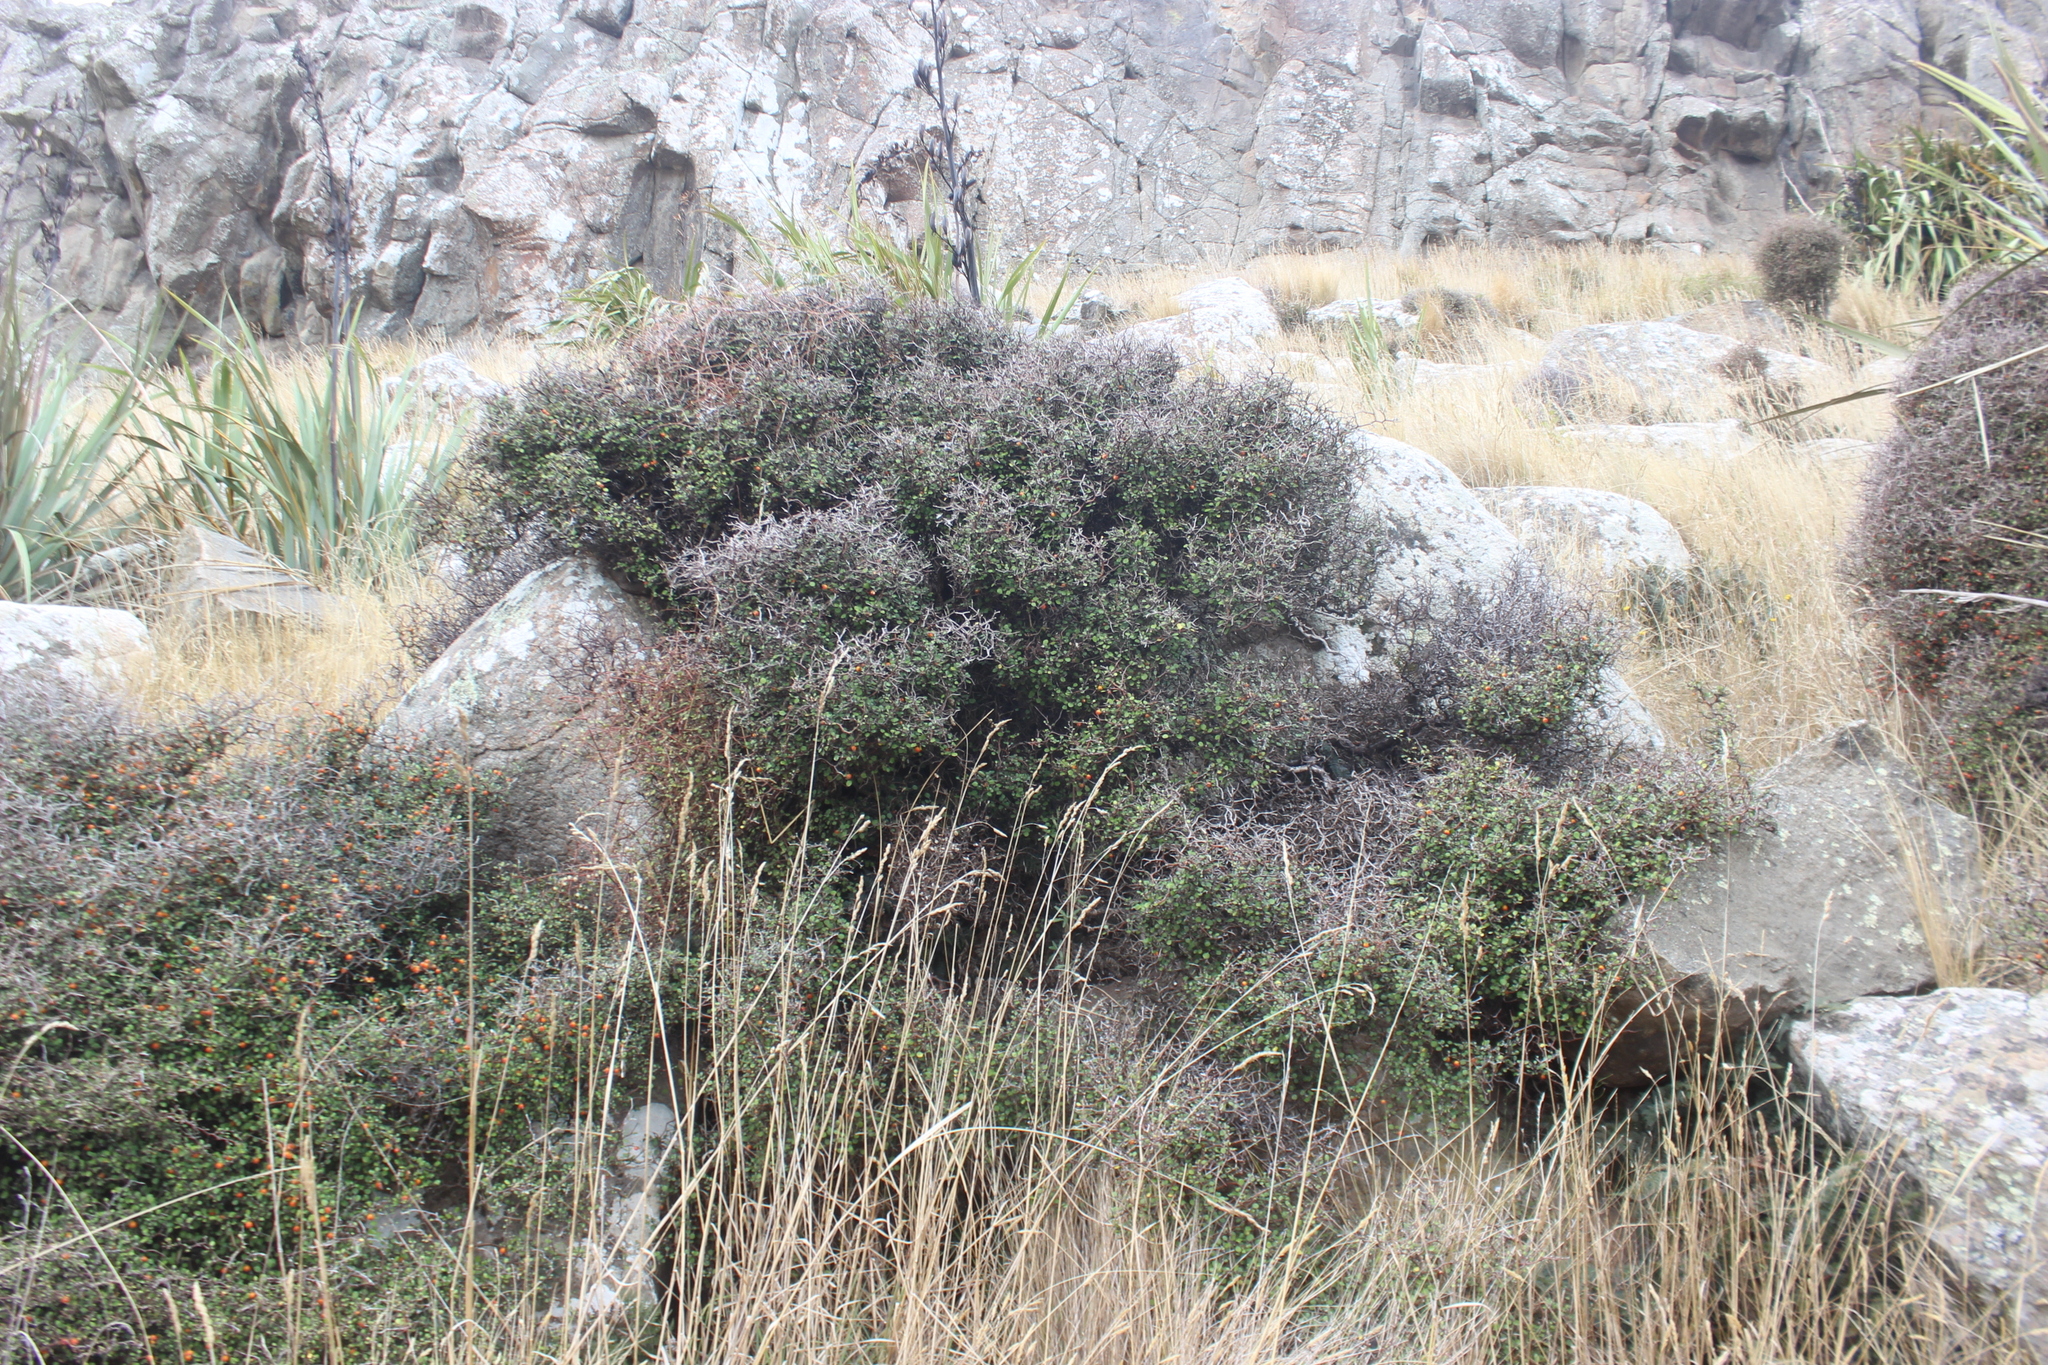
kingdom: Plantae
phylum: Tracheophyta
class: Magnoliopsida
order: Asterales
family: Argophyllaceae
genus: Corokia
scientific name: Corokia cotoneaster
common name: Wire nettingbush
